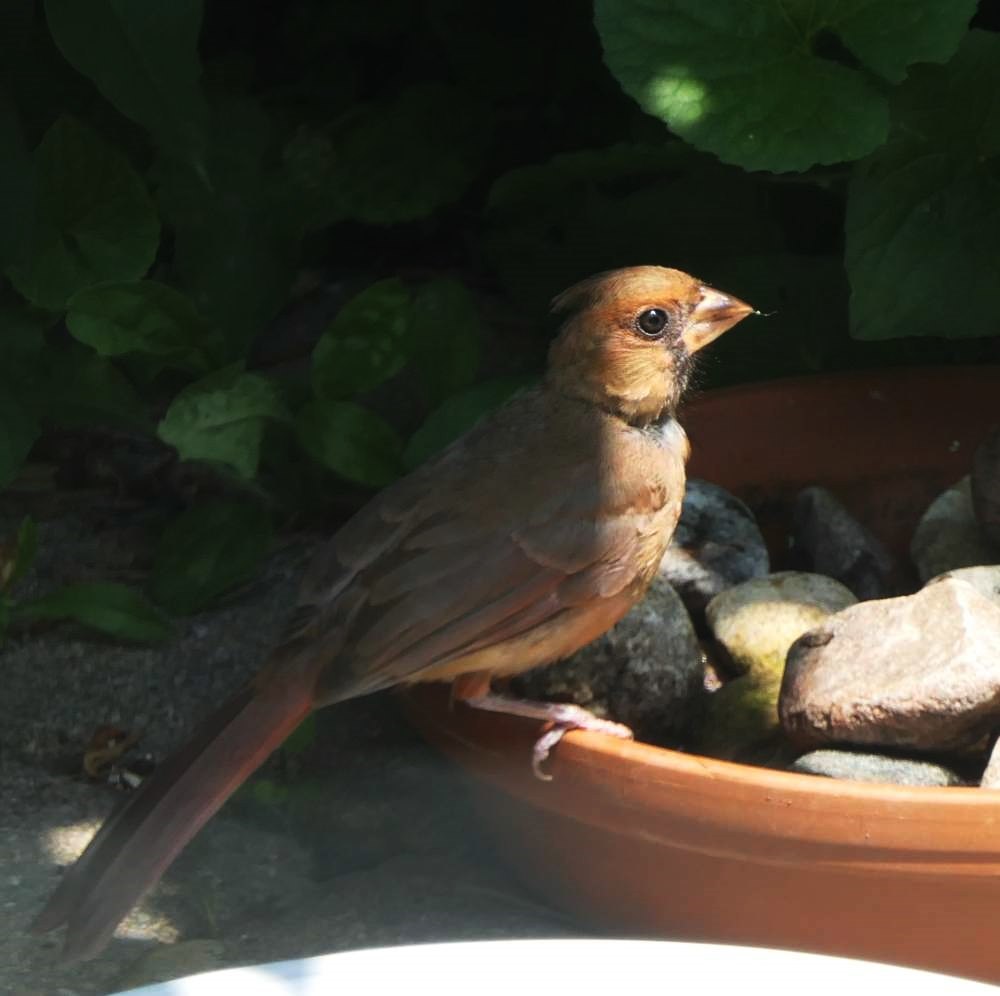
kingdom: Animalia
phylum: Chordata
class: Aves
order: Passeriformes
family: Cardinalidae
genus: Cardinalis
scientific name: Cardinalis cardinalis
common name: Northern cardinal
